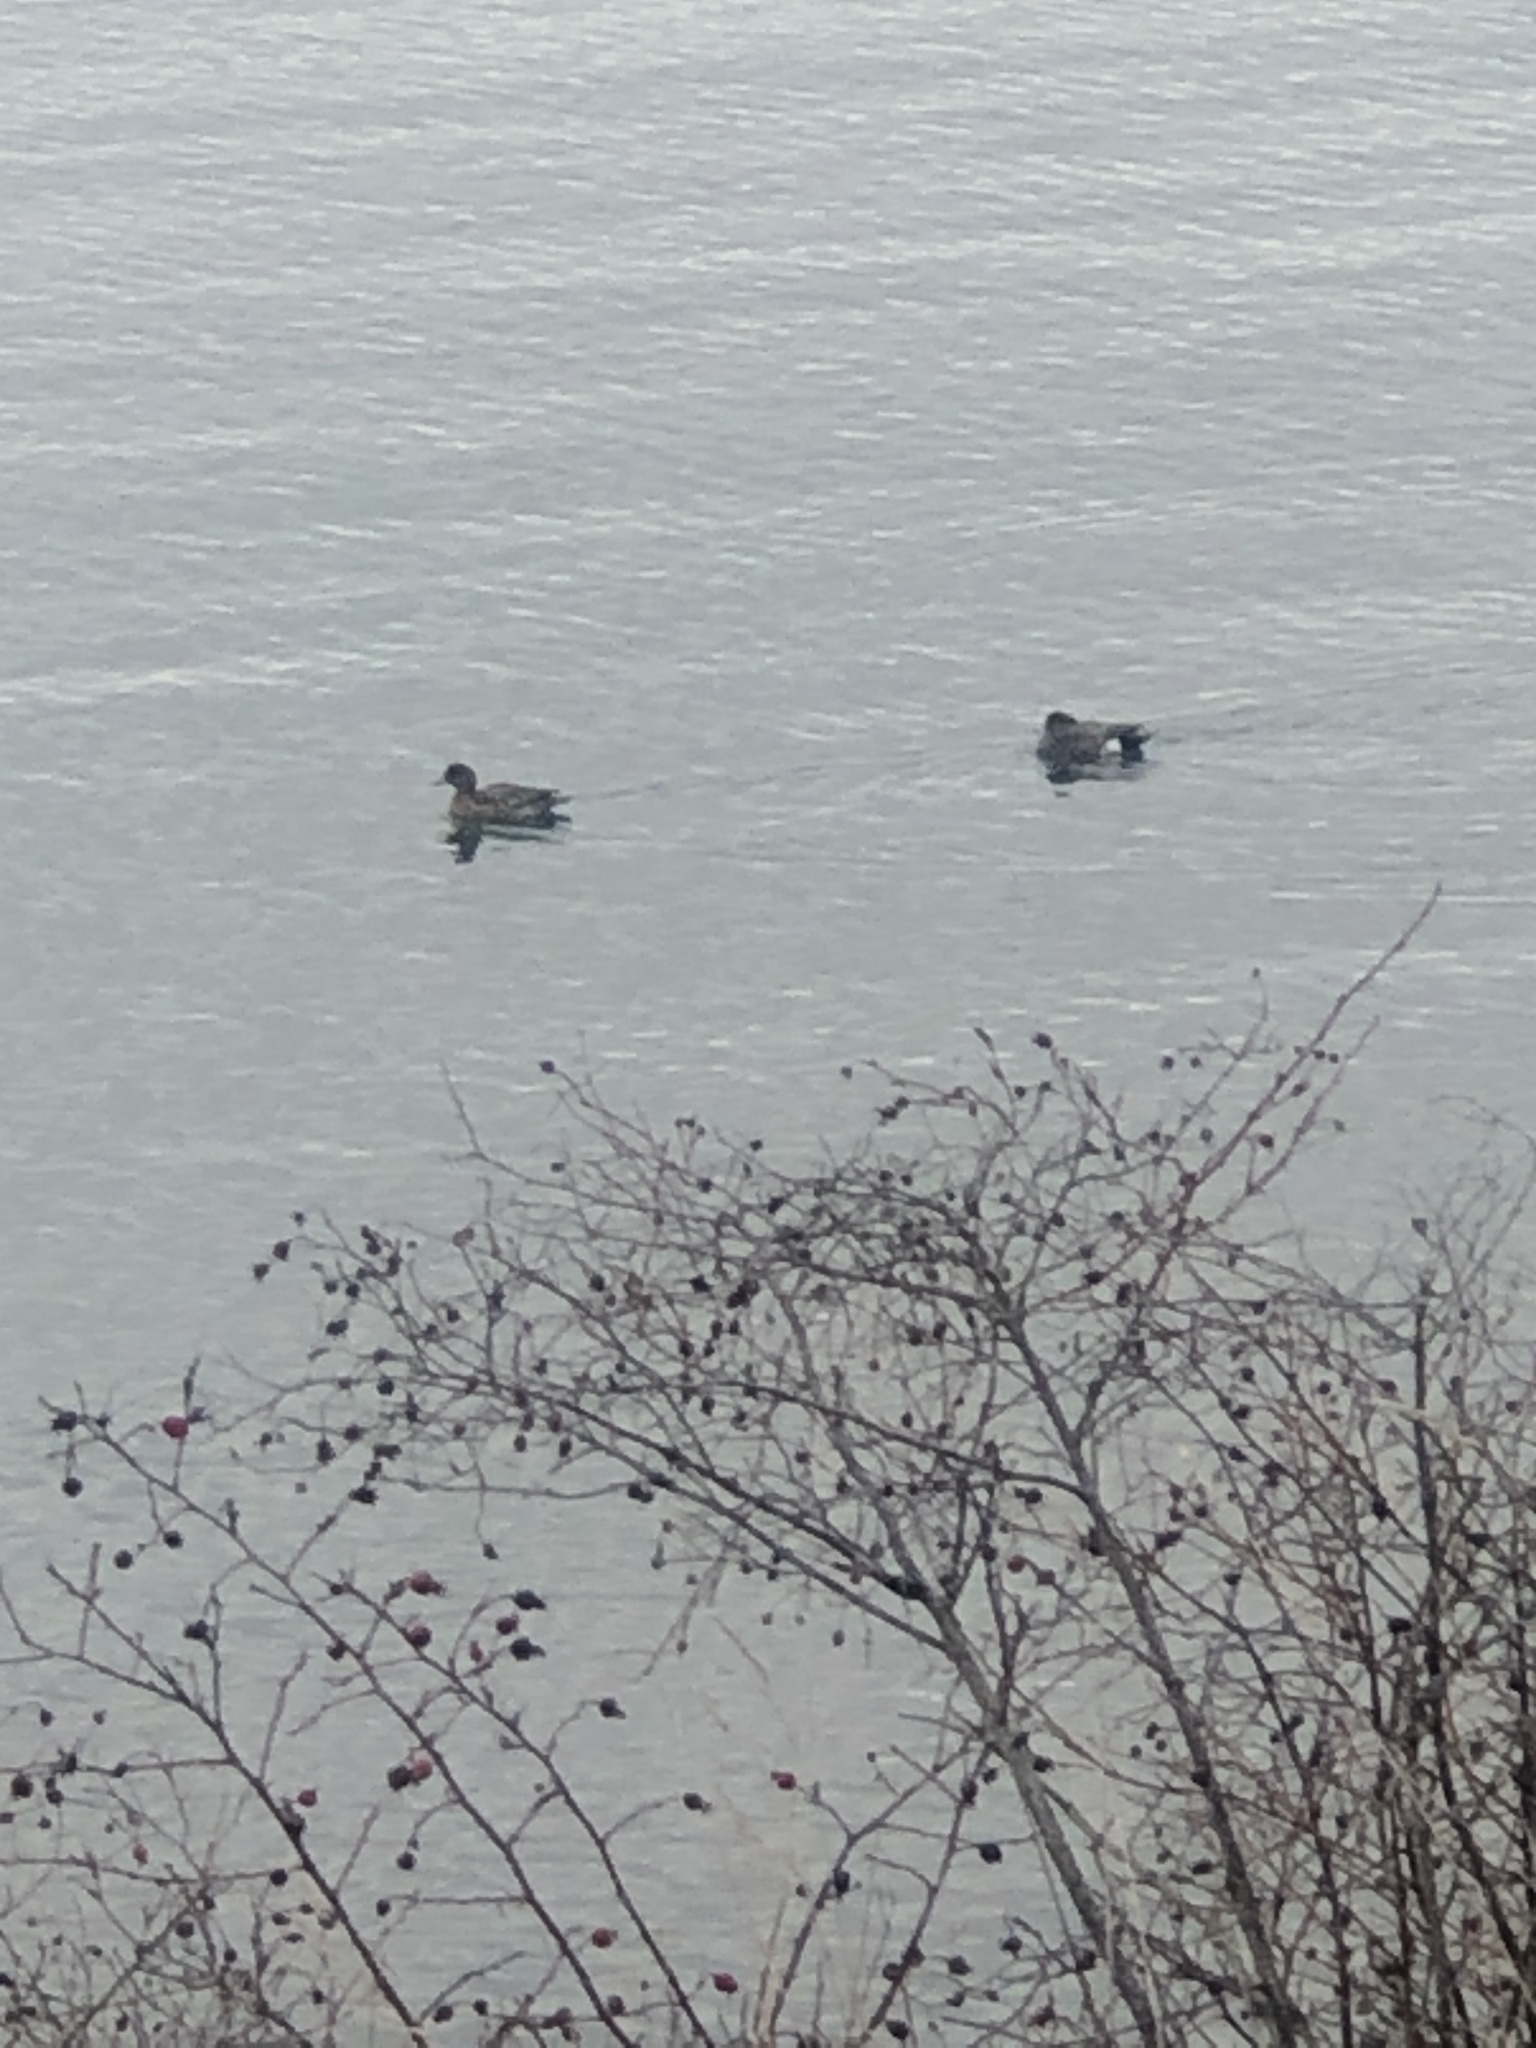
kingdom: Animalia
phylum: Chordata
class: Aves
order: Anseriformes
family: Anatidae
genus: Mareca
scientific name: Mareca americana
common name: American wigeon
